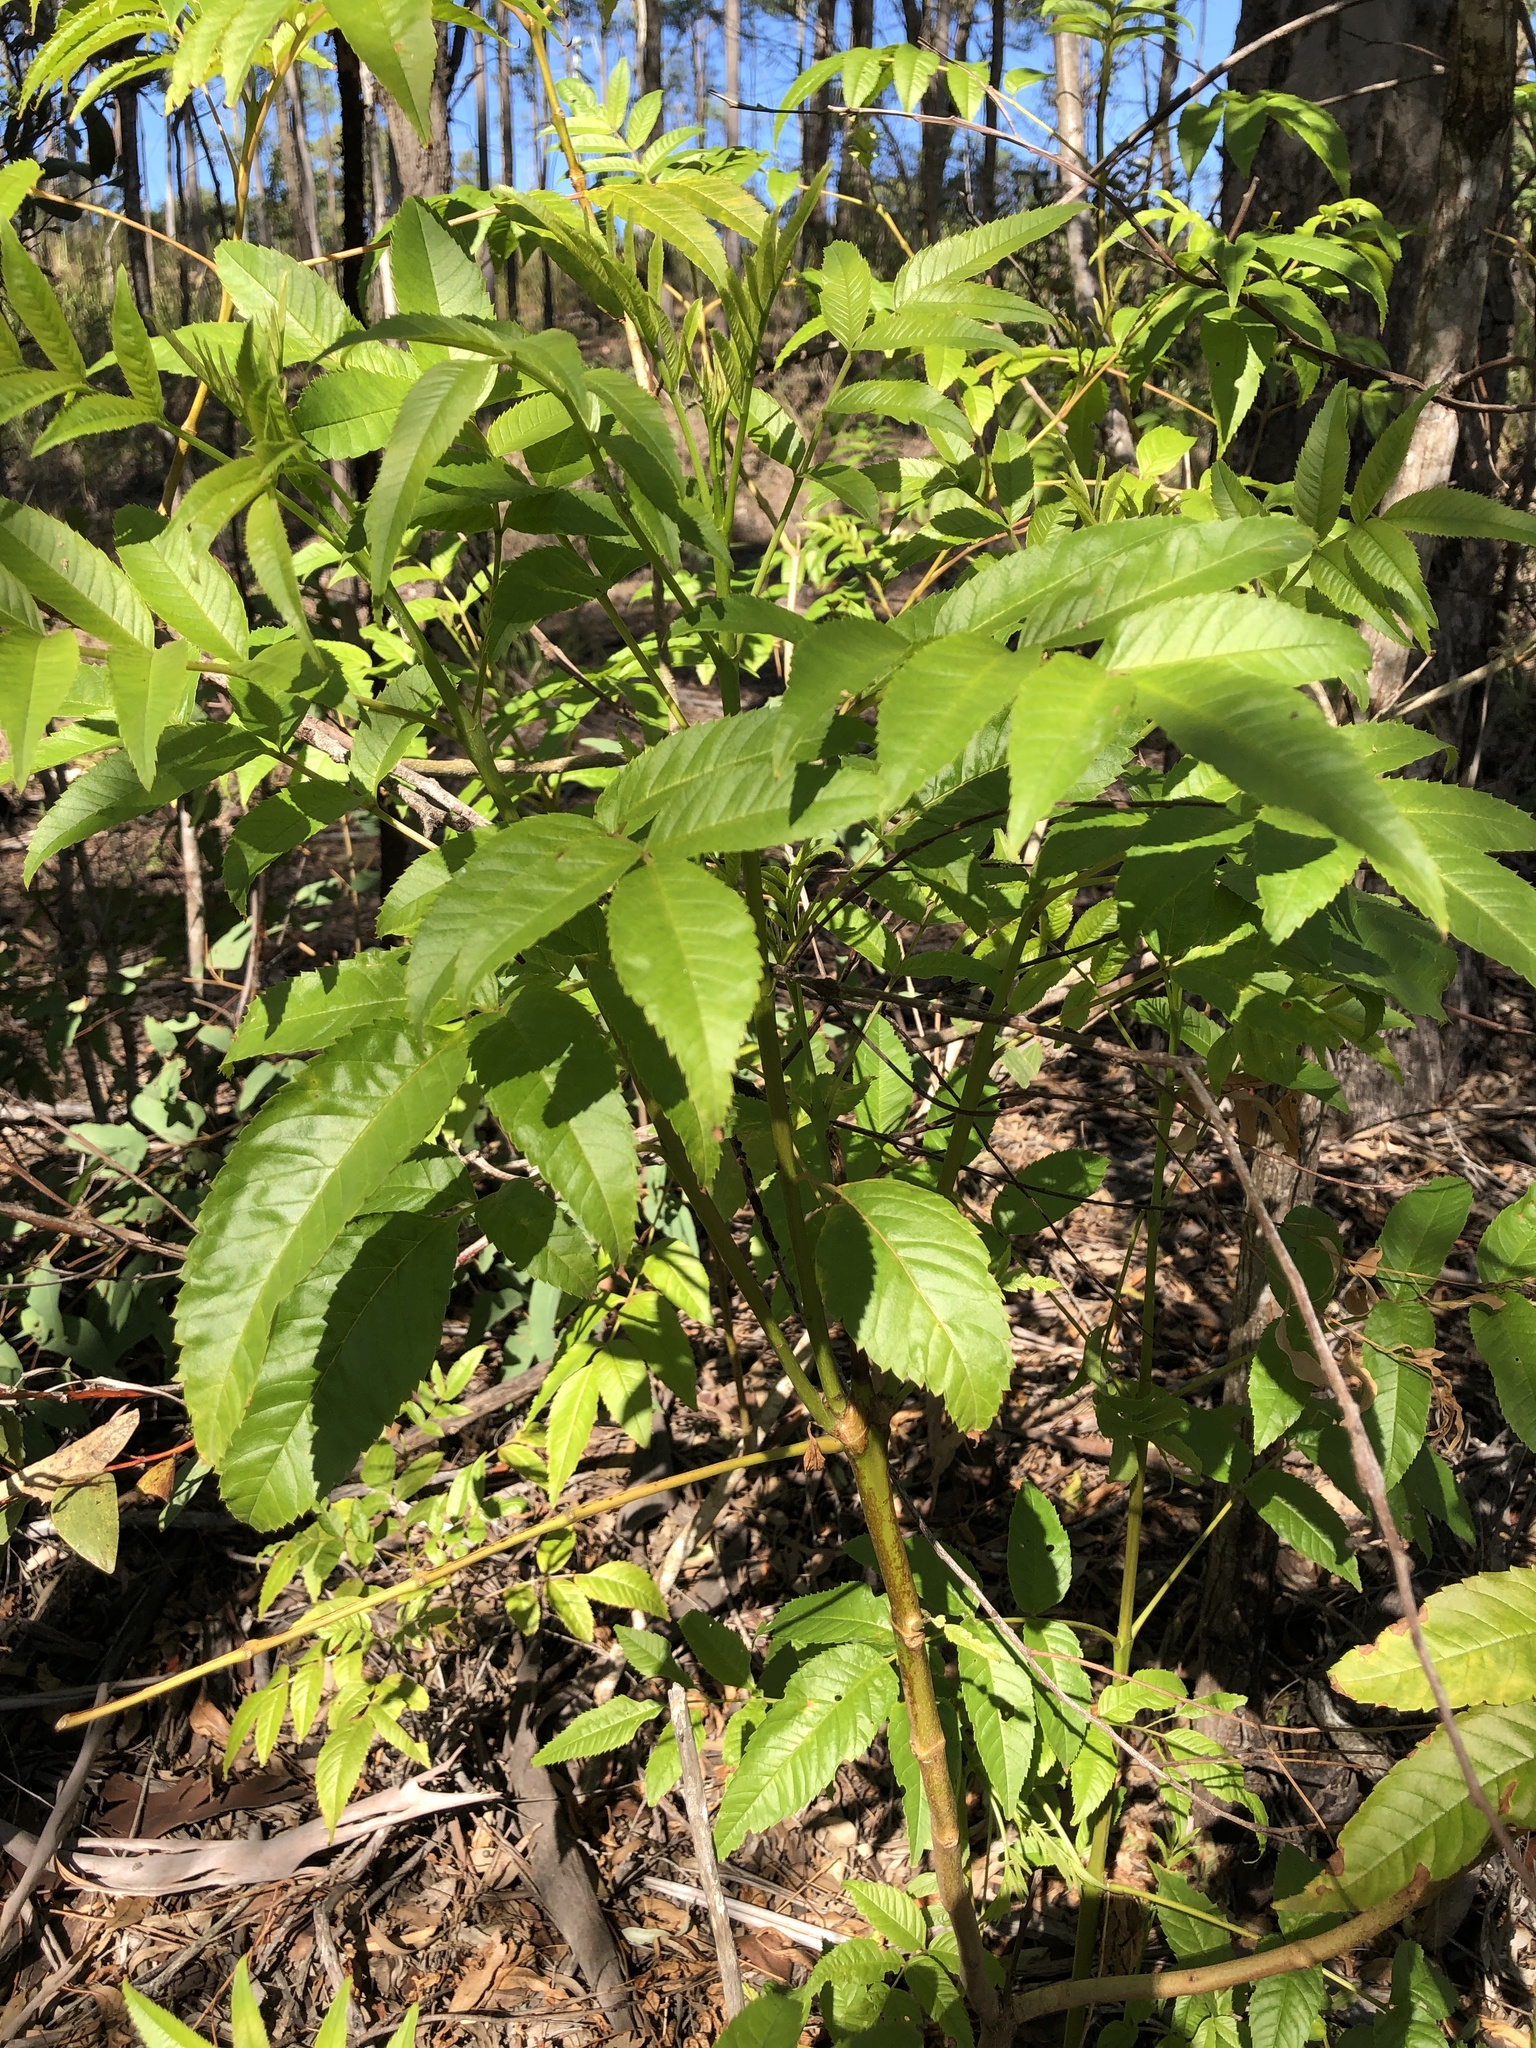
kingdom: Plantae
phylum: Tracheophyta
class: Magnoliopsida
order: Lamiales
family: Bignoniaceae
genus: Tecoma
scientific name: Tecoma stans
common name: Yellow trumpetbush
